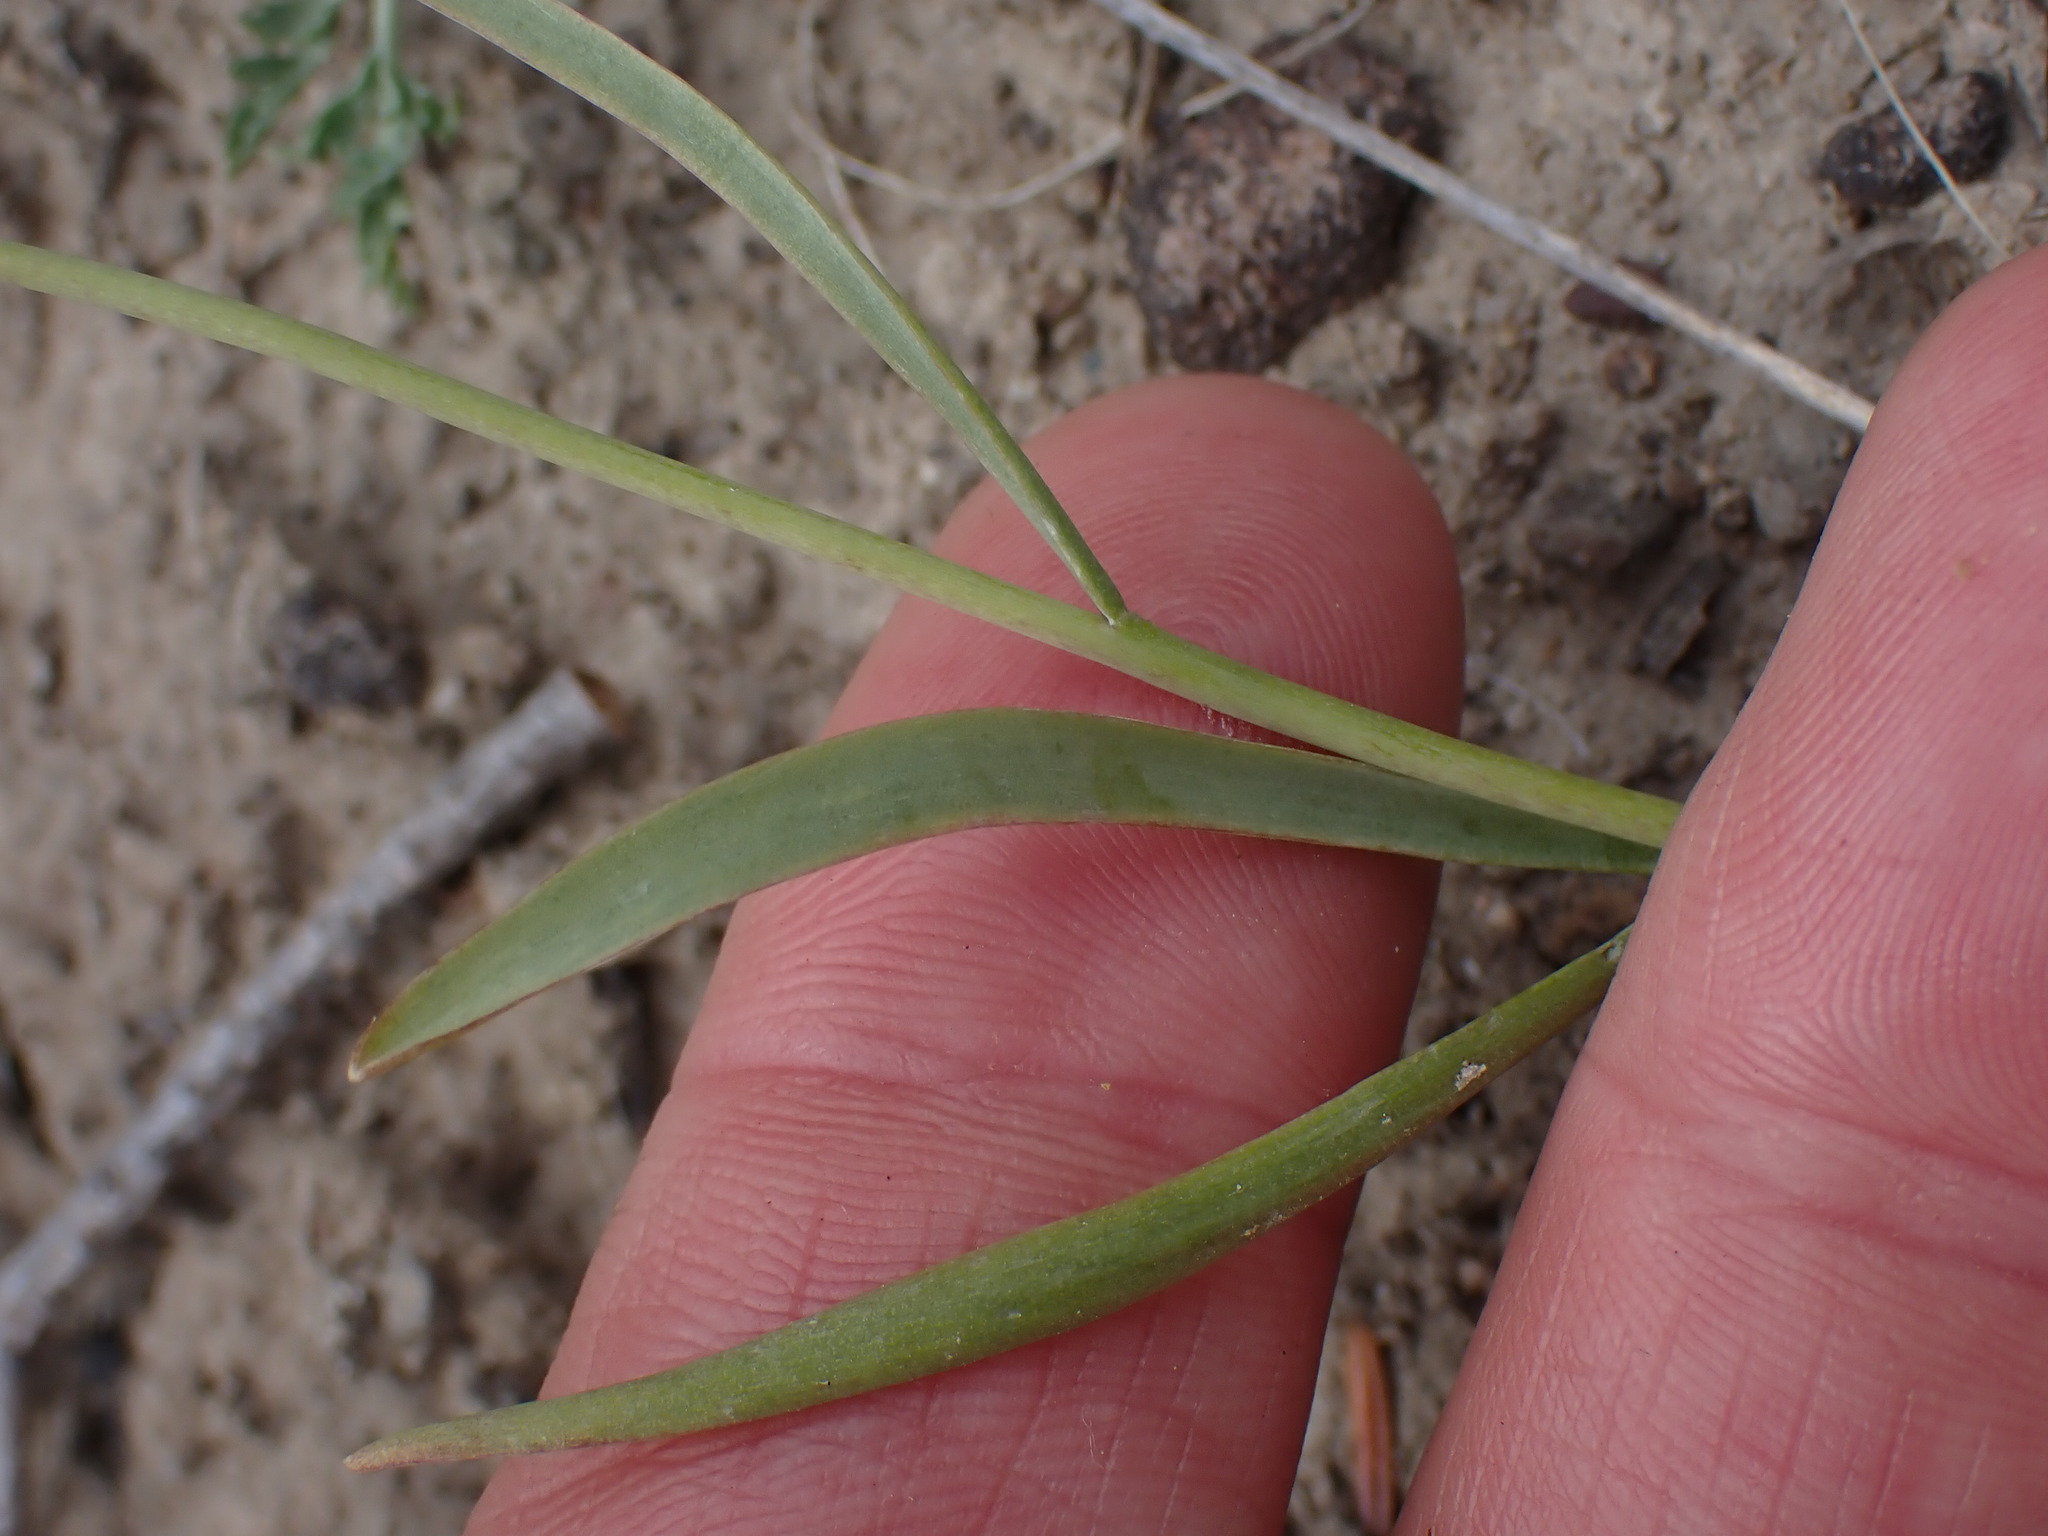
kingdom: Plantae
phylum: Tracheophyta
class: Liliopsida
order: Liliales
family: Liliaceae
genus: Fritillaria
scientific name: Fritillaria pudica
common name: Yellow fritillary
